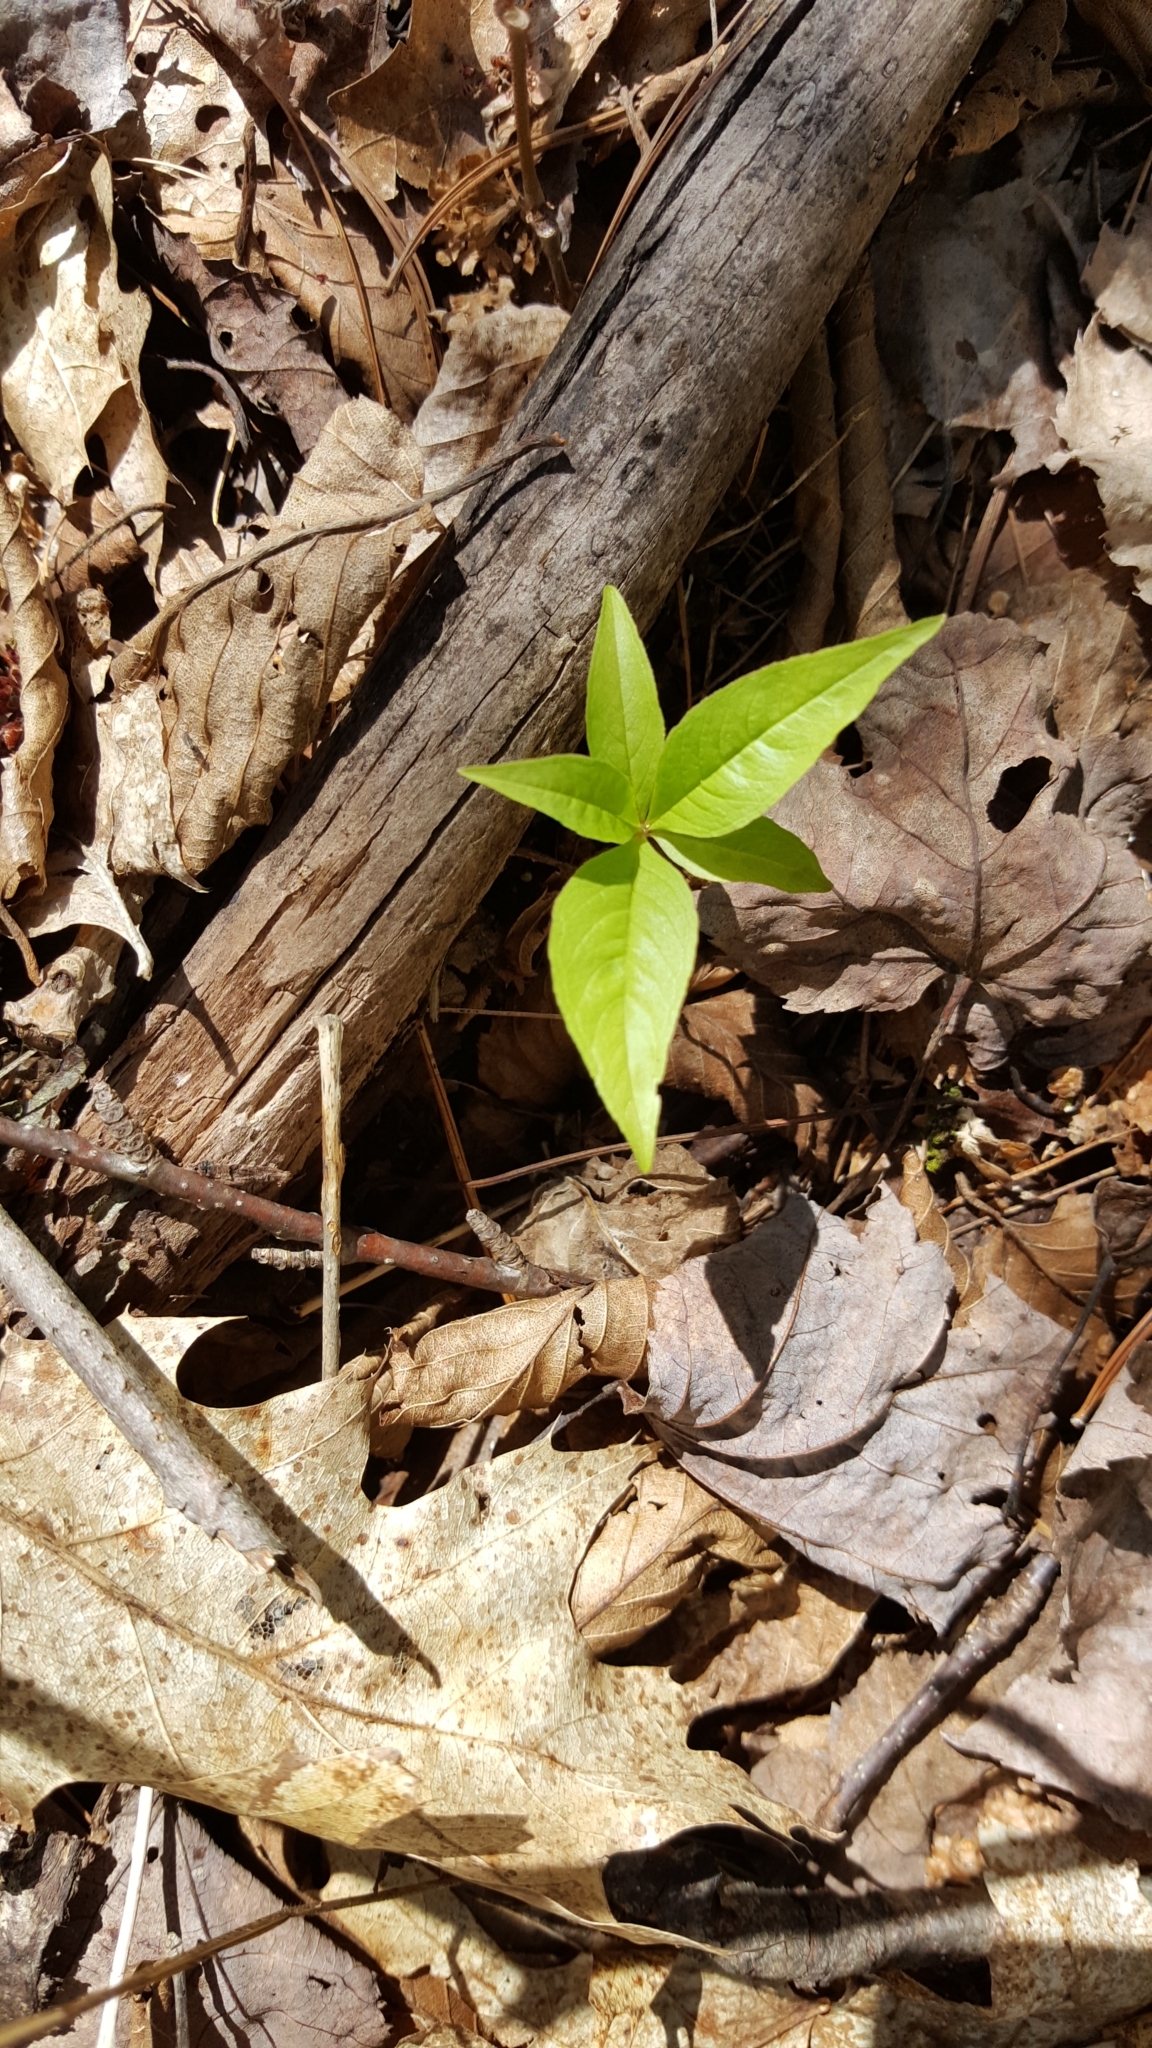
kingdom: Plantae
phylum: Tracheophyta
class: Magnoliopsida
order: Ericales
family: Primulaceae
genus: Lysimachia
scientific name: Lysimachia borealis
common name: American starflower
